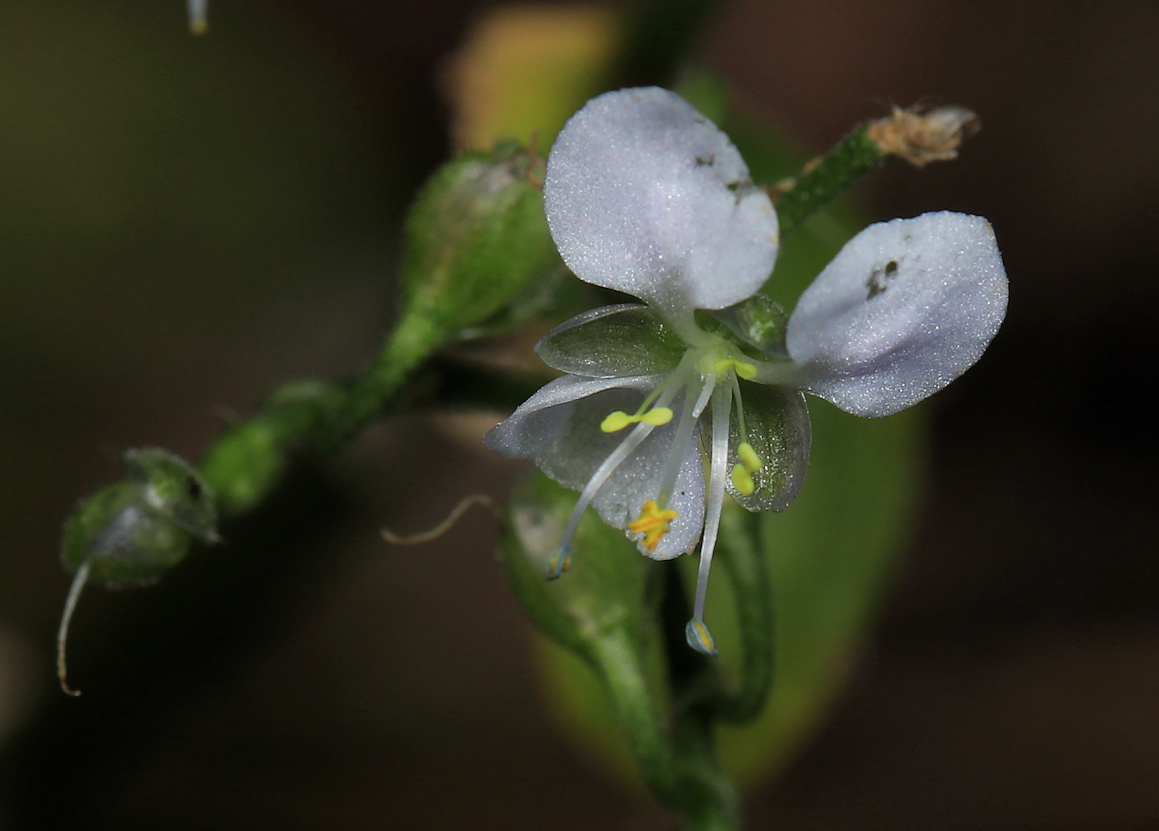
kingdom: Plantae
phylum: Tracheophyta
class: Liliopsida
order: Commelinales
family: Commelinaceae
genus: Aneilema
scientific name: Aneilema indehiscens
